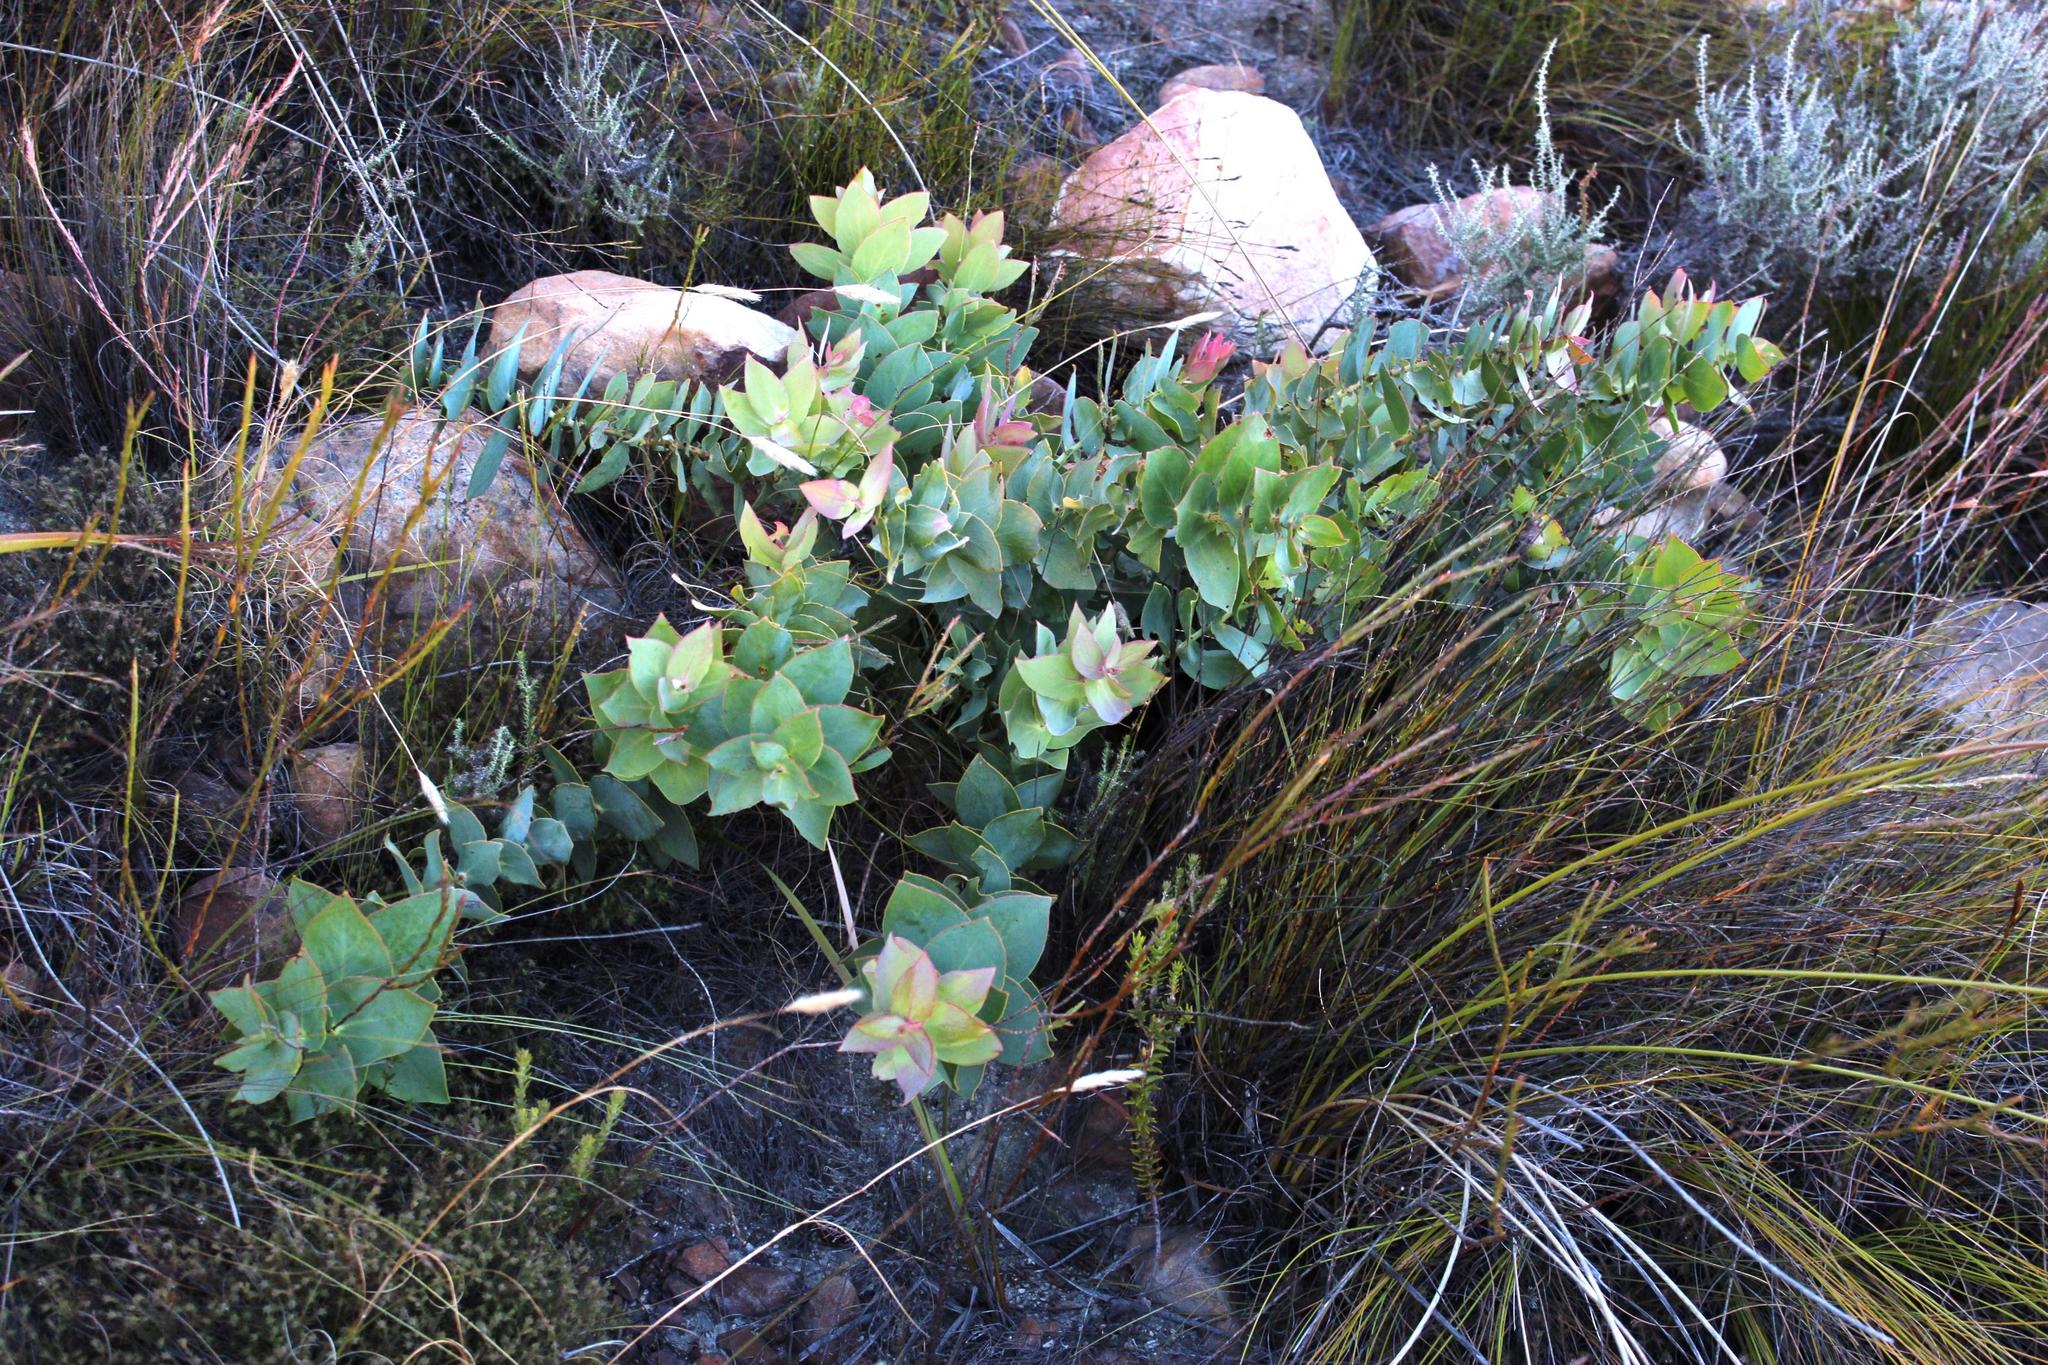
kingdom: Plantae
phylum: Tracheophyta
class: Magnoliopsida
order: Proteales
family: Proteaceae
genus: Protea
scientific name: Protea amplexicaulis
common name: Clasping-leaf sugarbush
